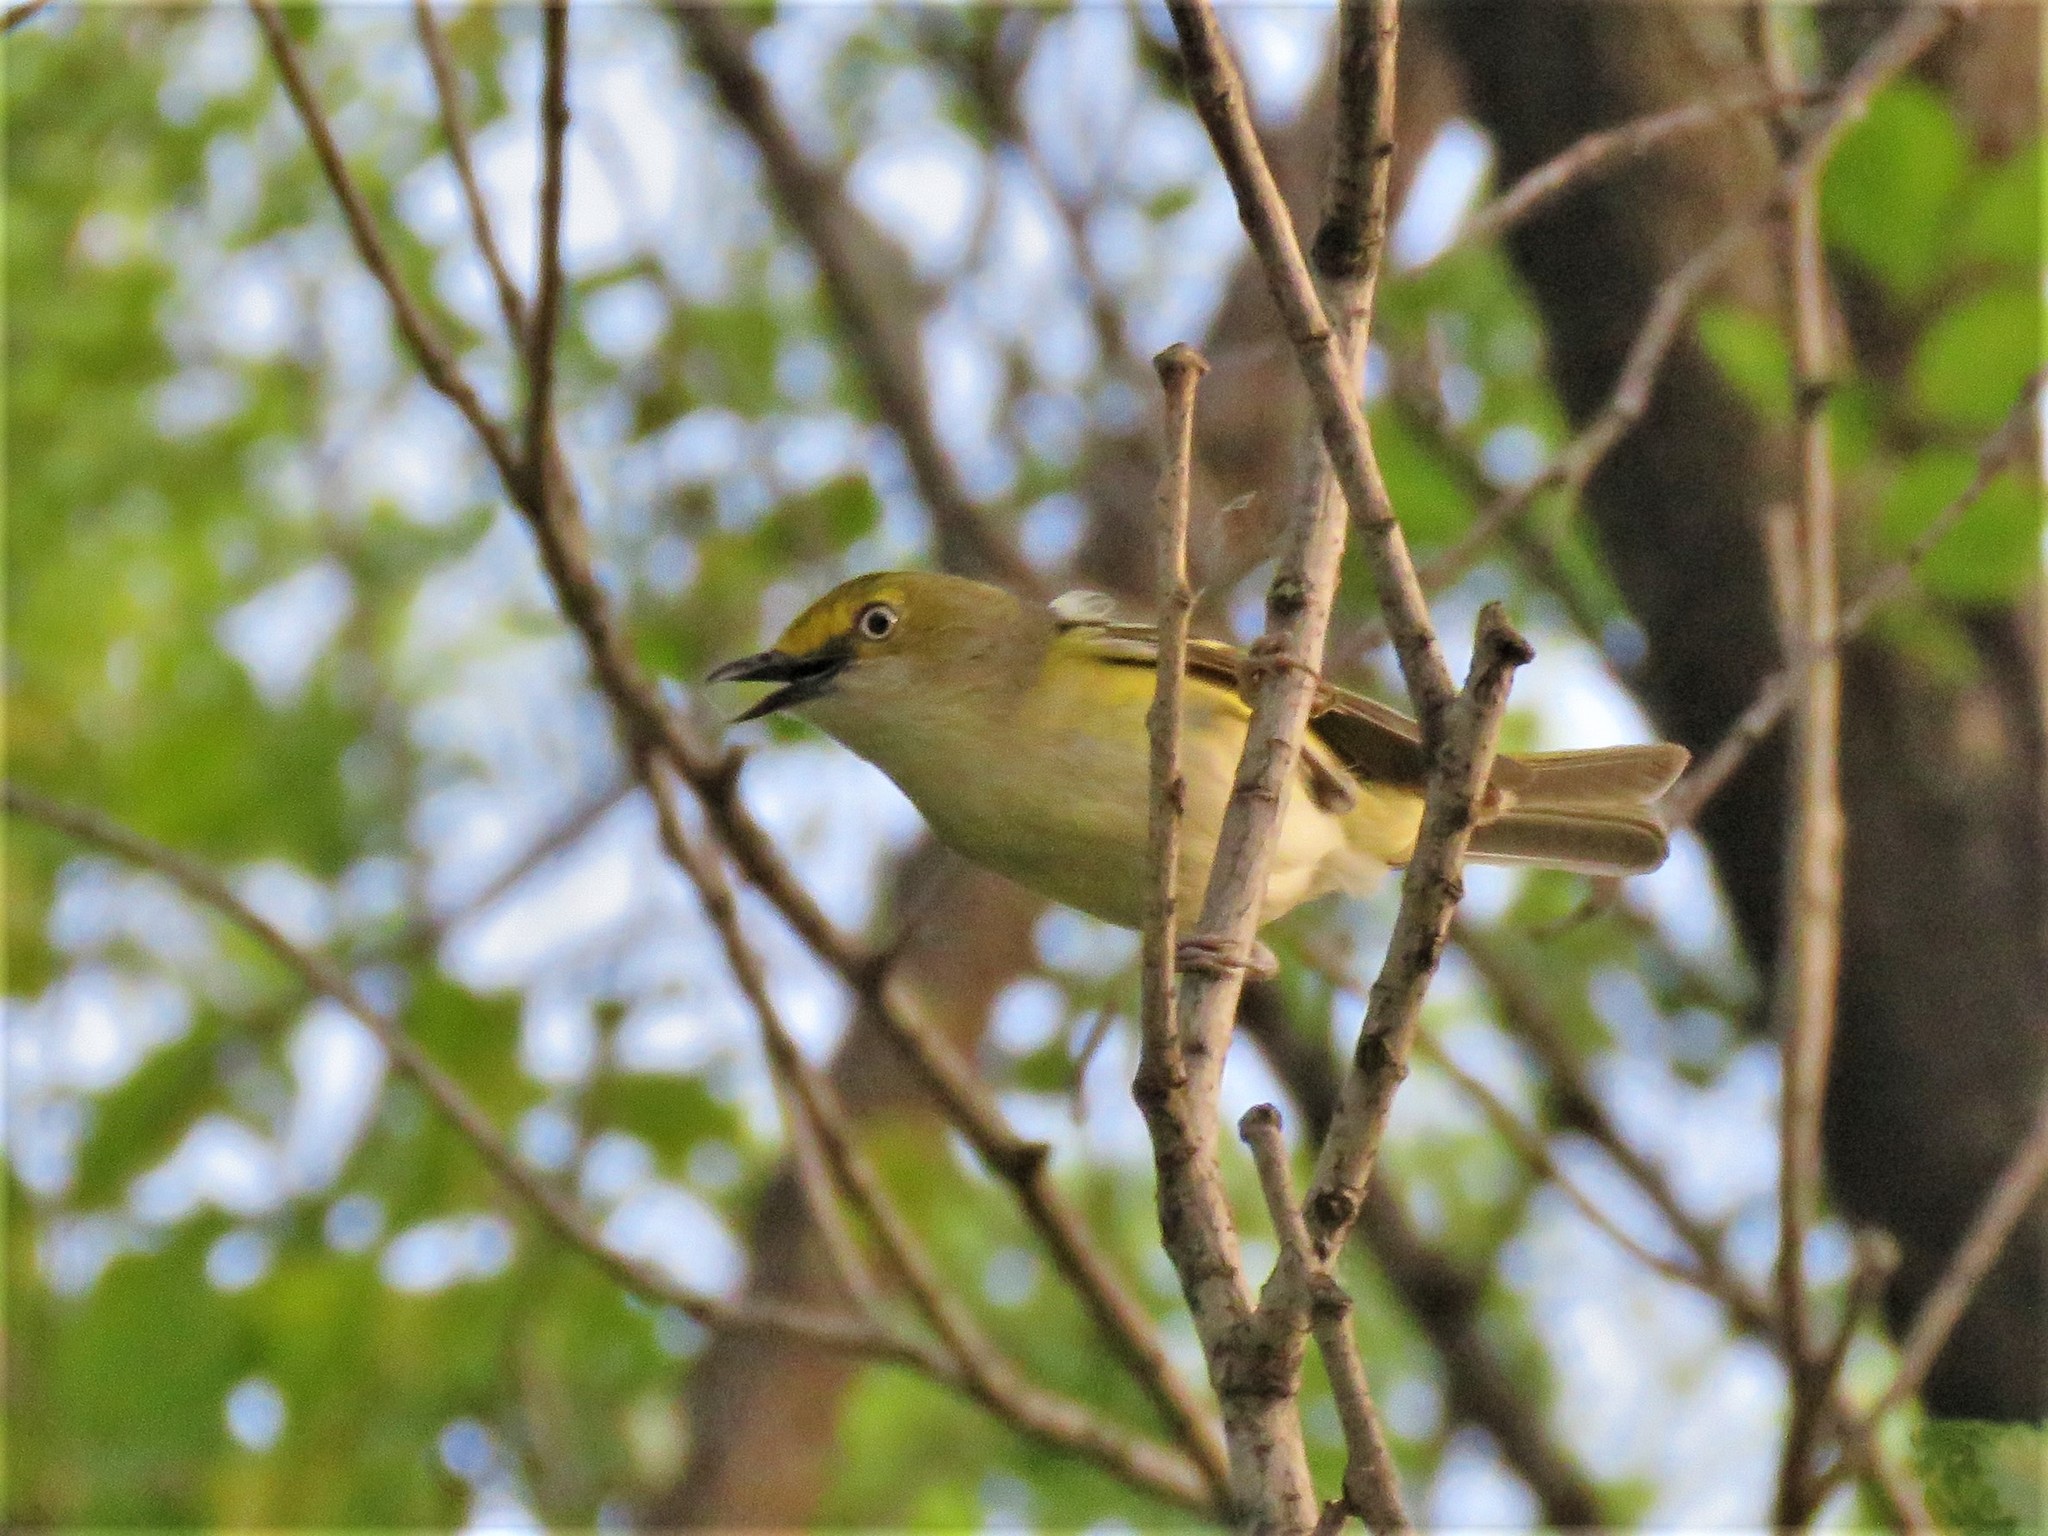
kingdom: Animalia
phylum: Chordata
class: Aves
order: Passeriformes
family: Vireonidae
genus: Vireo
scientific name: Vireo griseus
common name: White-eyed vireo
